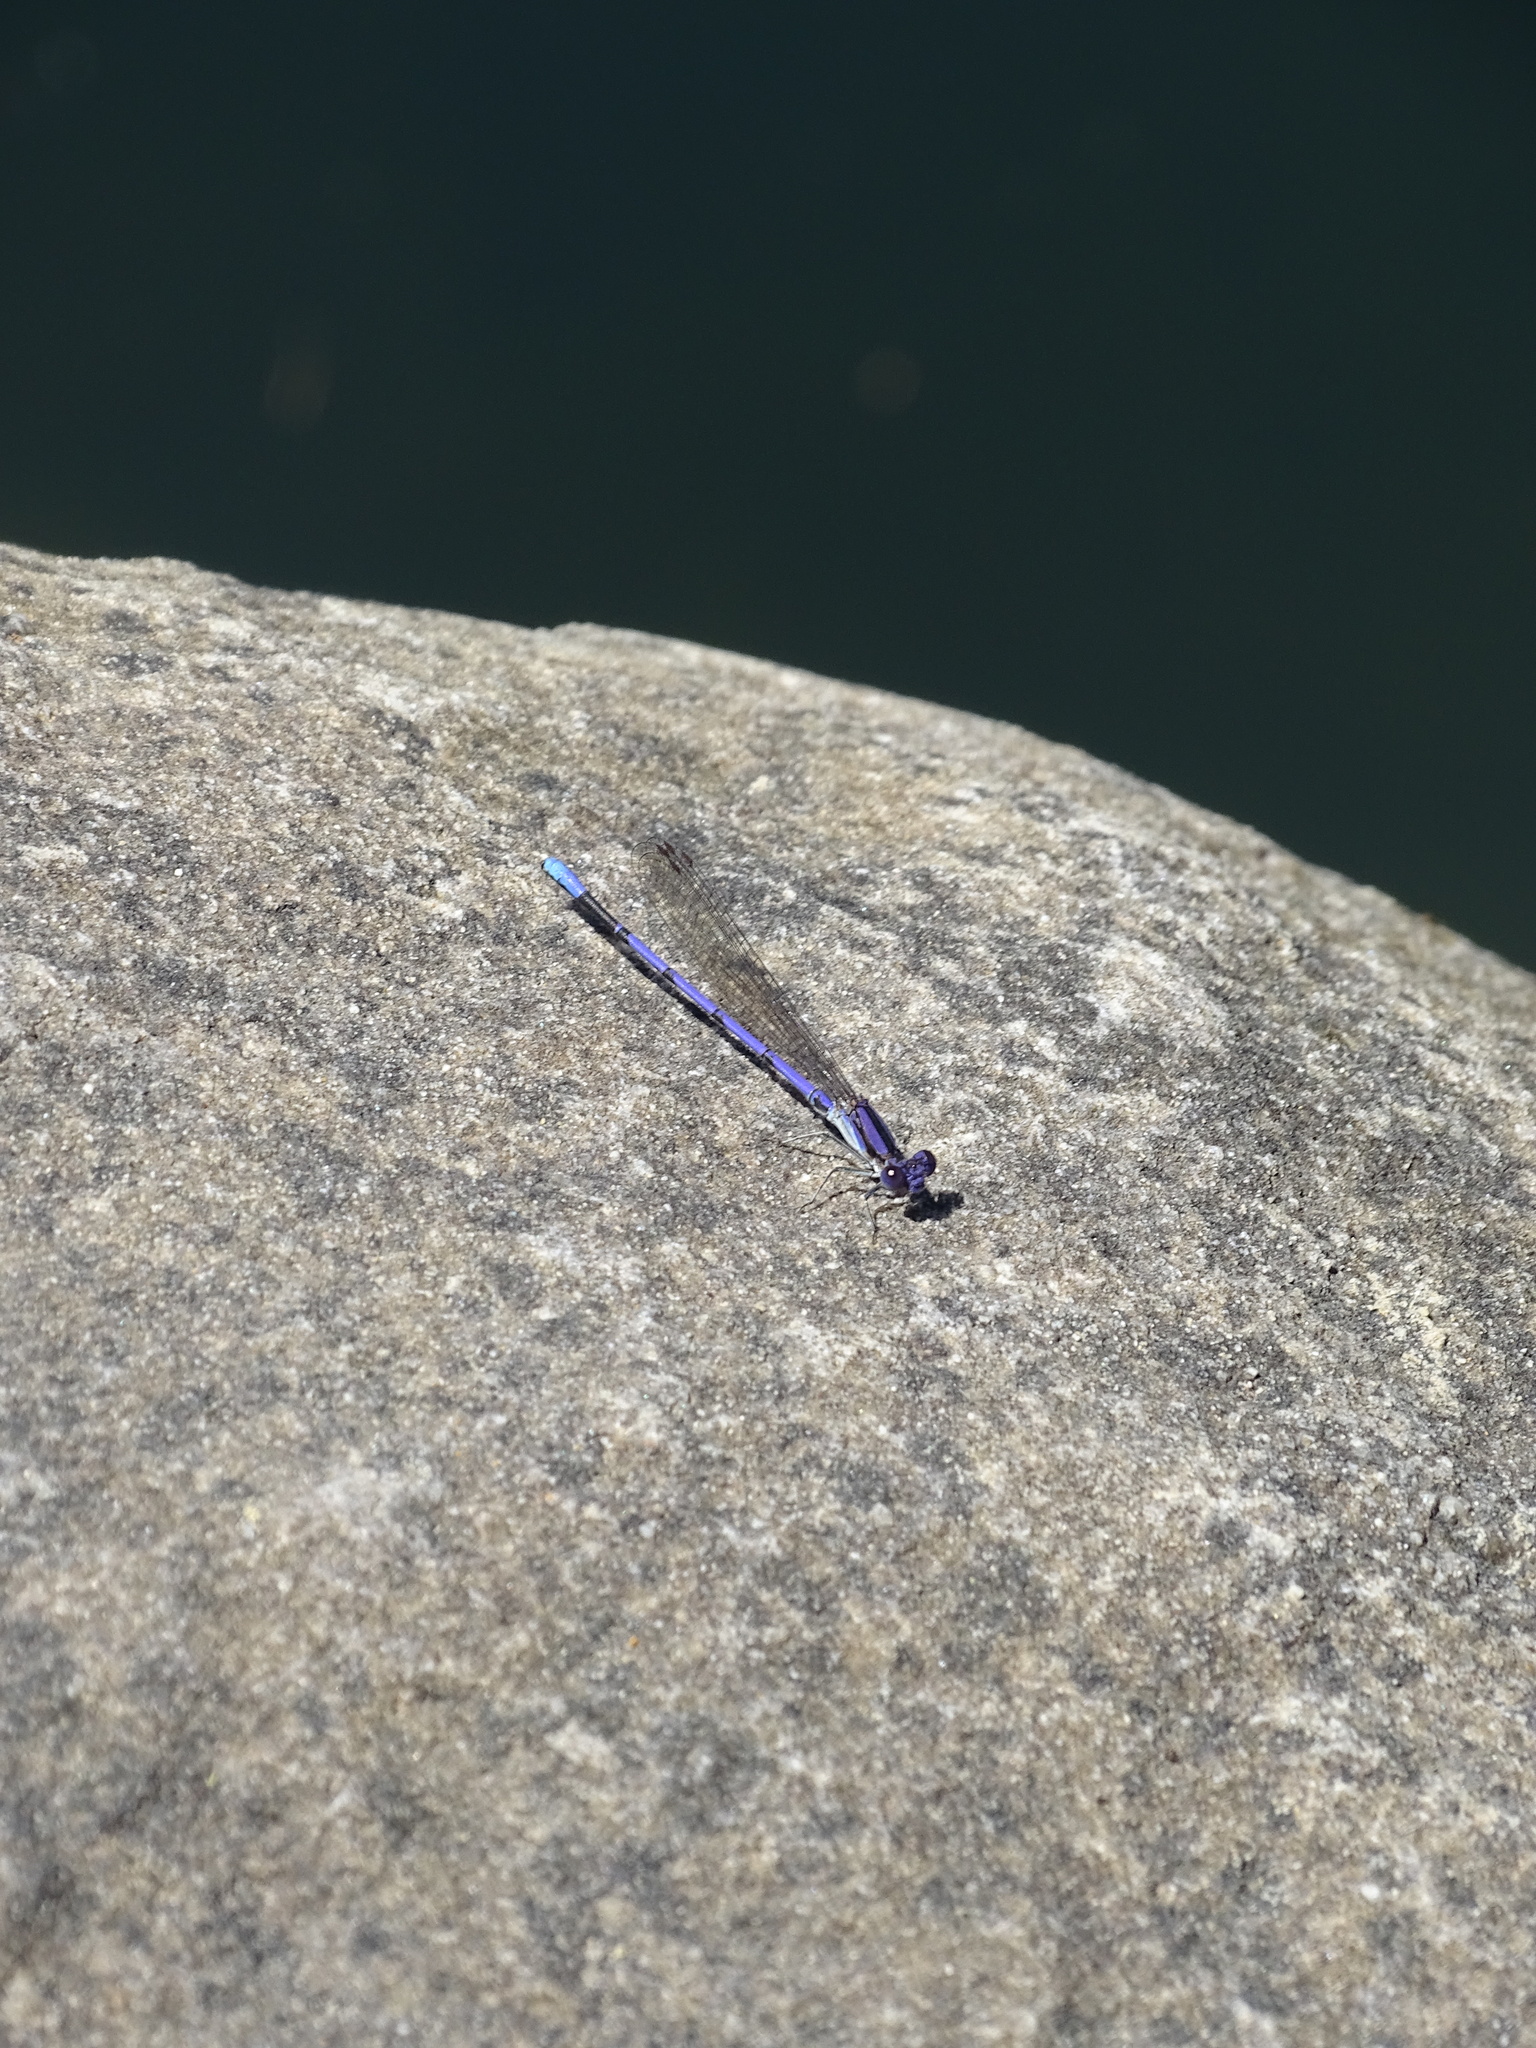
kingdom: Animalia
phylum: Arthropoda
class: Insecta
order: Odonata
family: Coenagrionidae
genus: Argia
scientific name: Argia fumipennis
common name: Variable dancer
